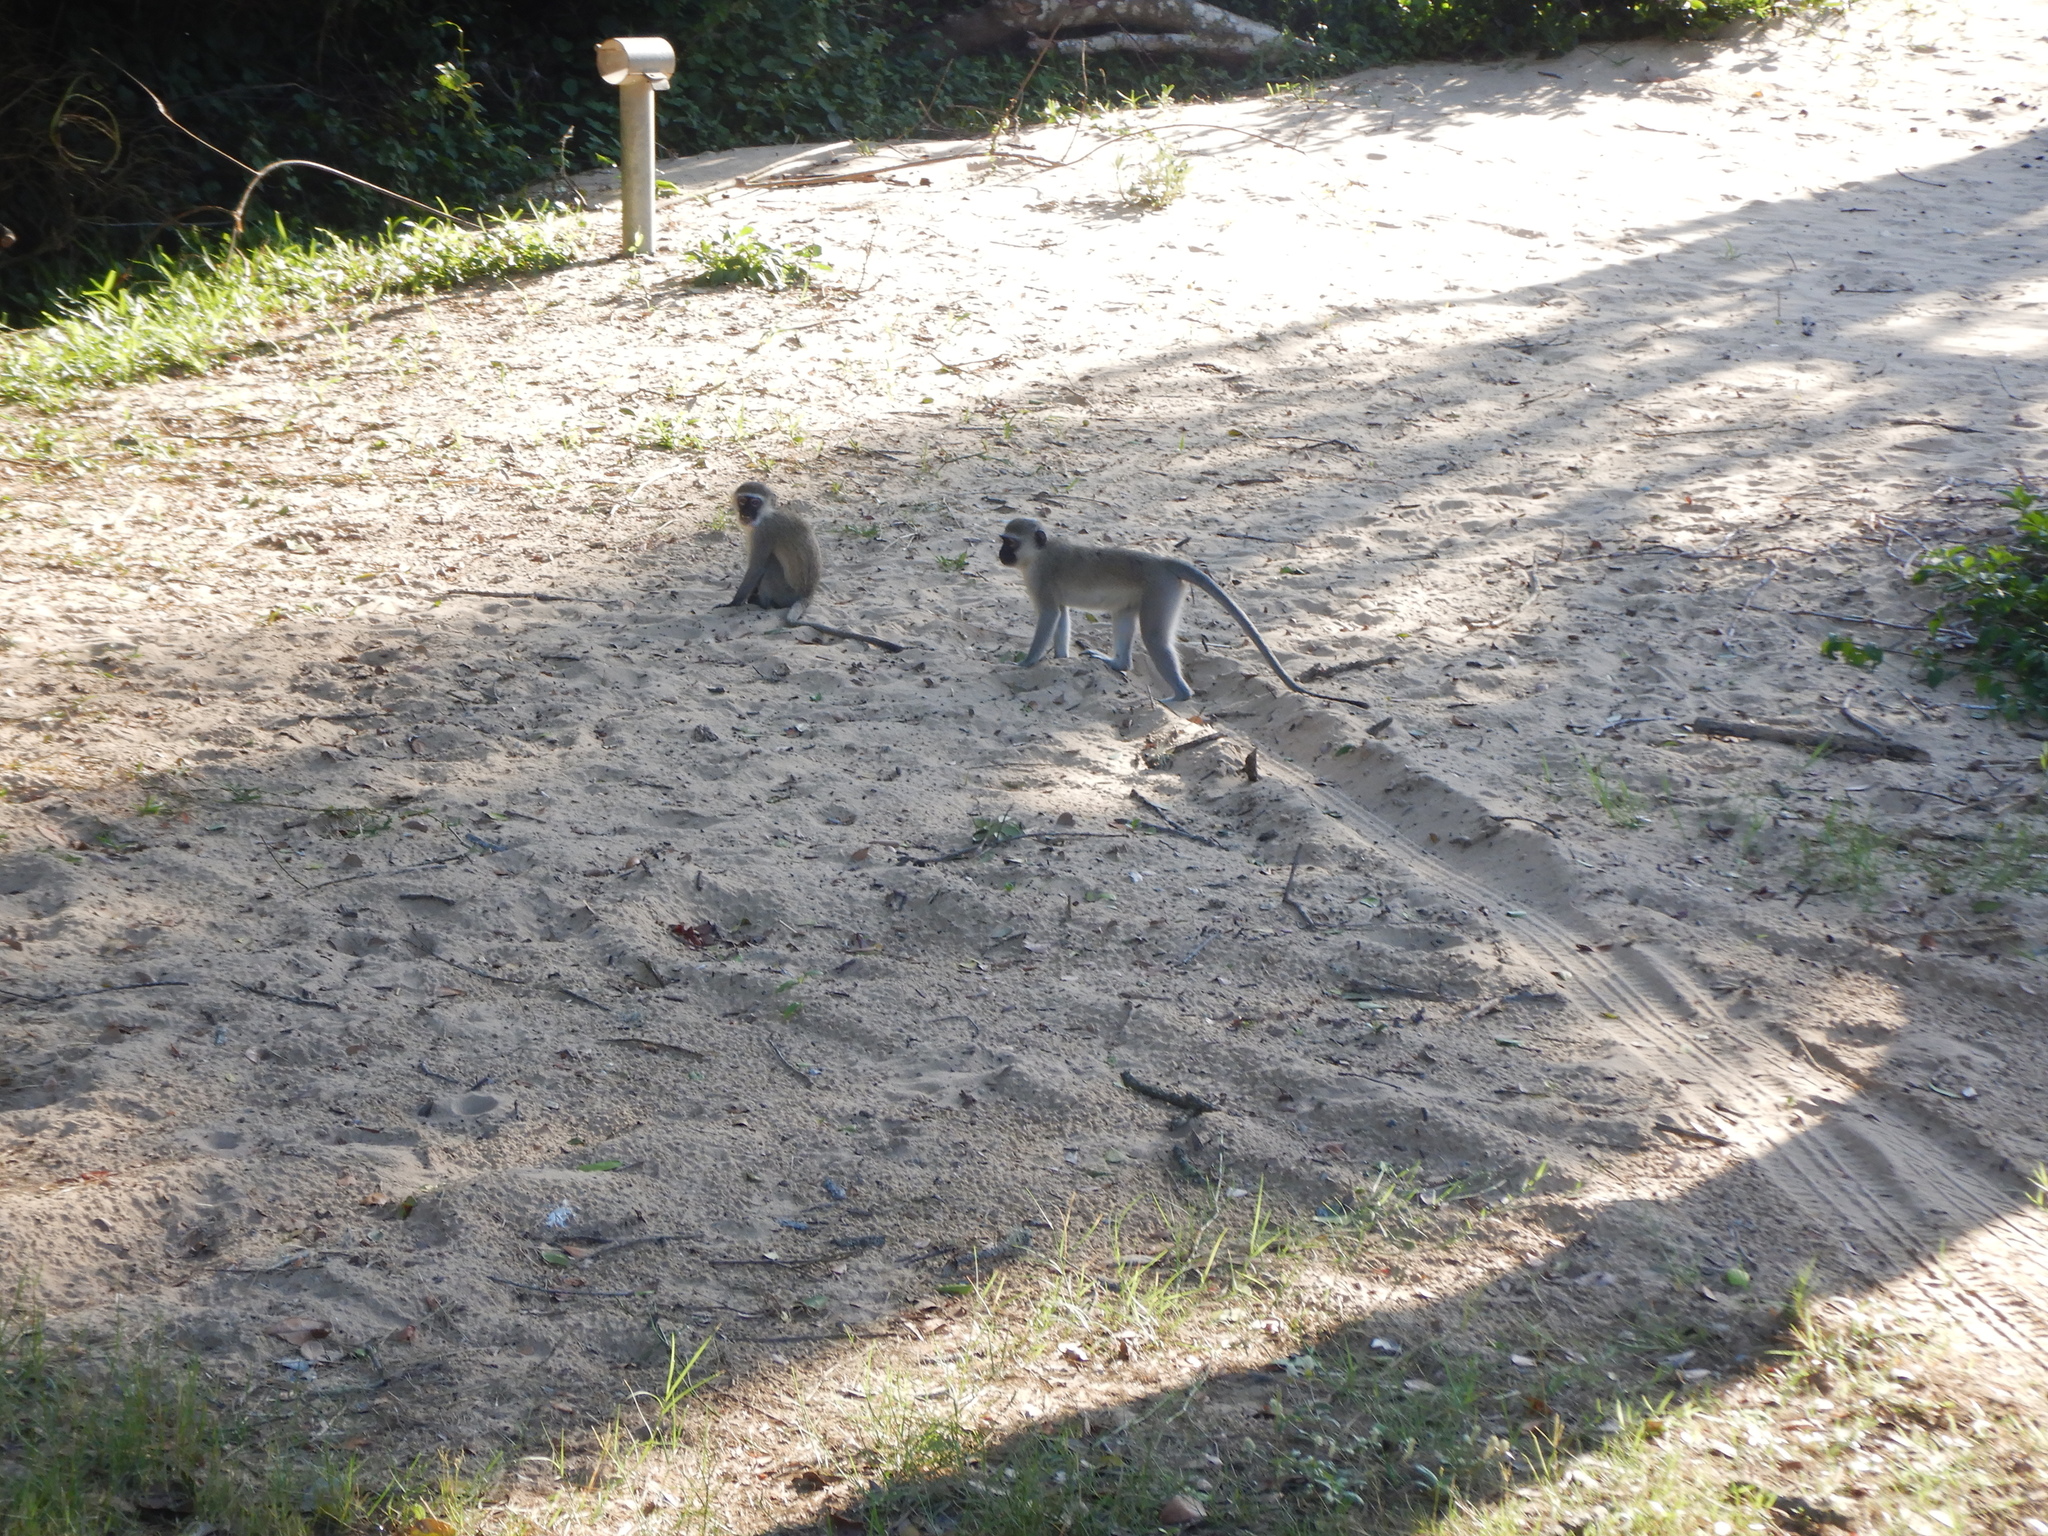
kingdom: Animalia
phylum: Chordata
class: Mammalia
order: Primates
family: Cercopithecidae
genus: Chlorocebus
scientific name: Chlorocebus pygerythrus
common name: Vervet monkey
